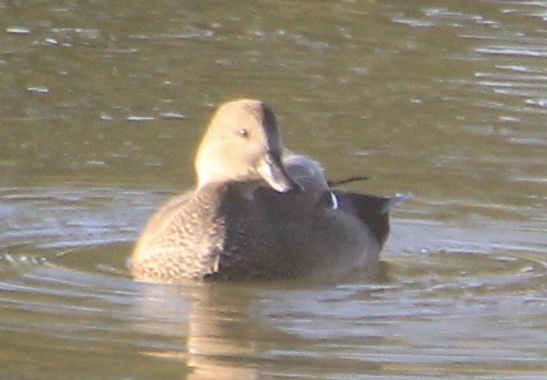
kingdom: Animalia
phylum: Chordata
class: Aves
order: Anseriformes
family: Anatidae
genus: Mareca
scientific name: Mareca strepera
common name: Gadwall
